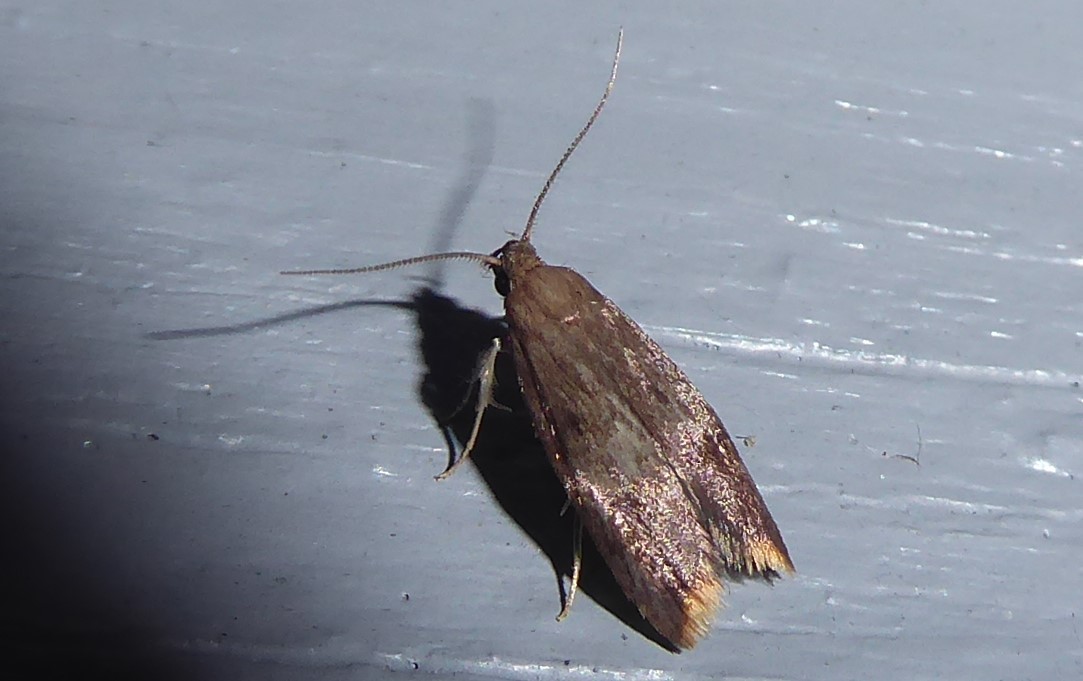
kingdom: Animalia
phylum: Arthropoda
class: Insecta
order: Lepidoptera
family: Oecophoridae
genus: Tachystola
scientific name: Tachystola acroxantha
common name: Ruddy streak
